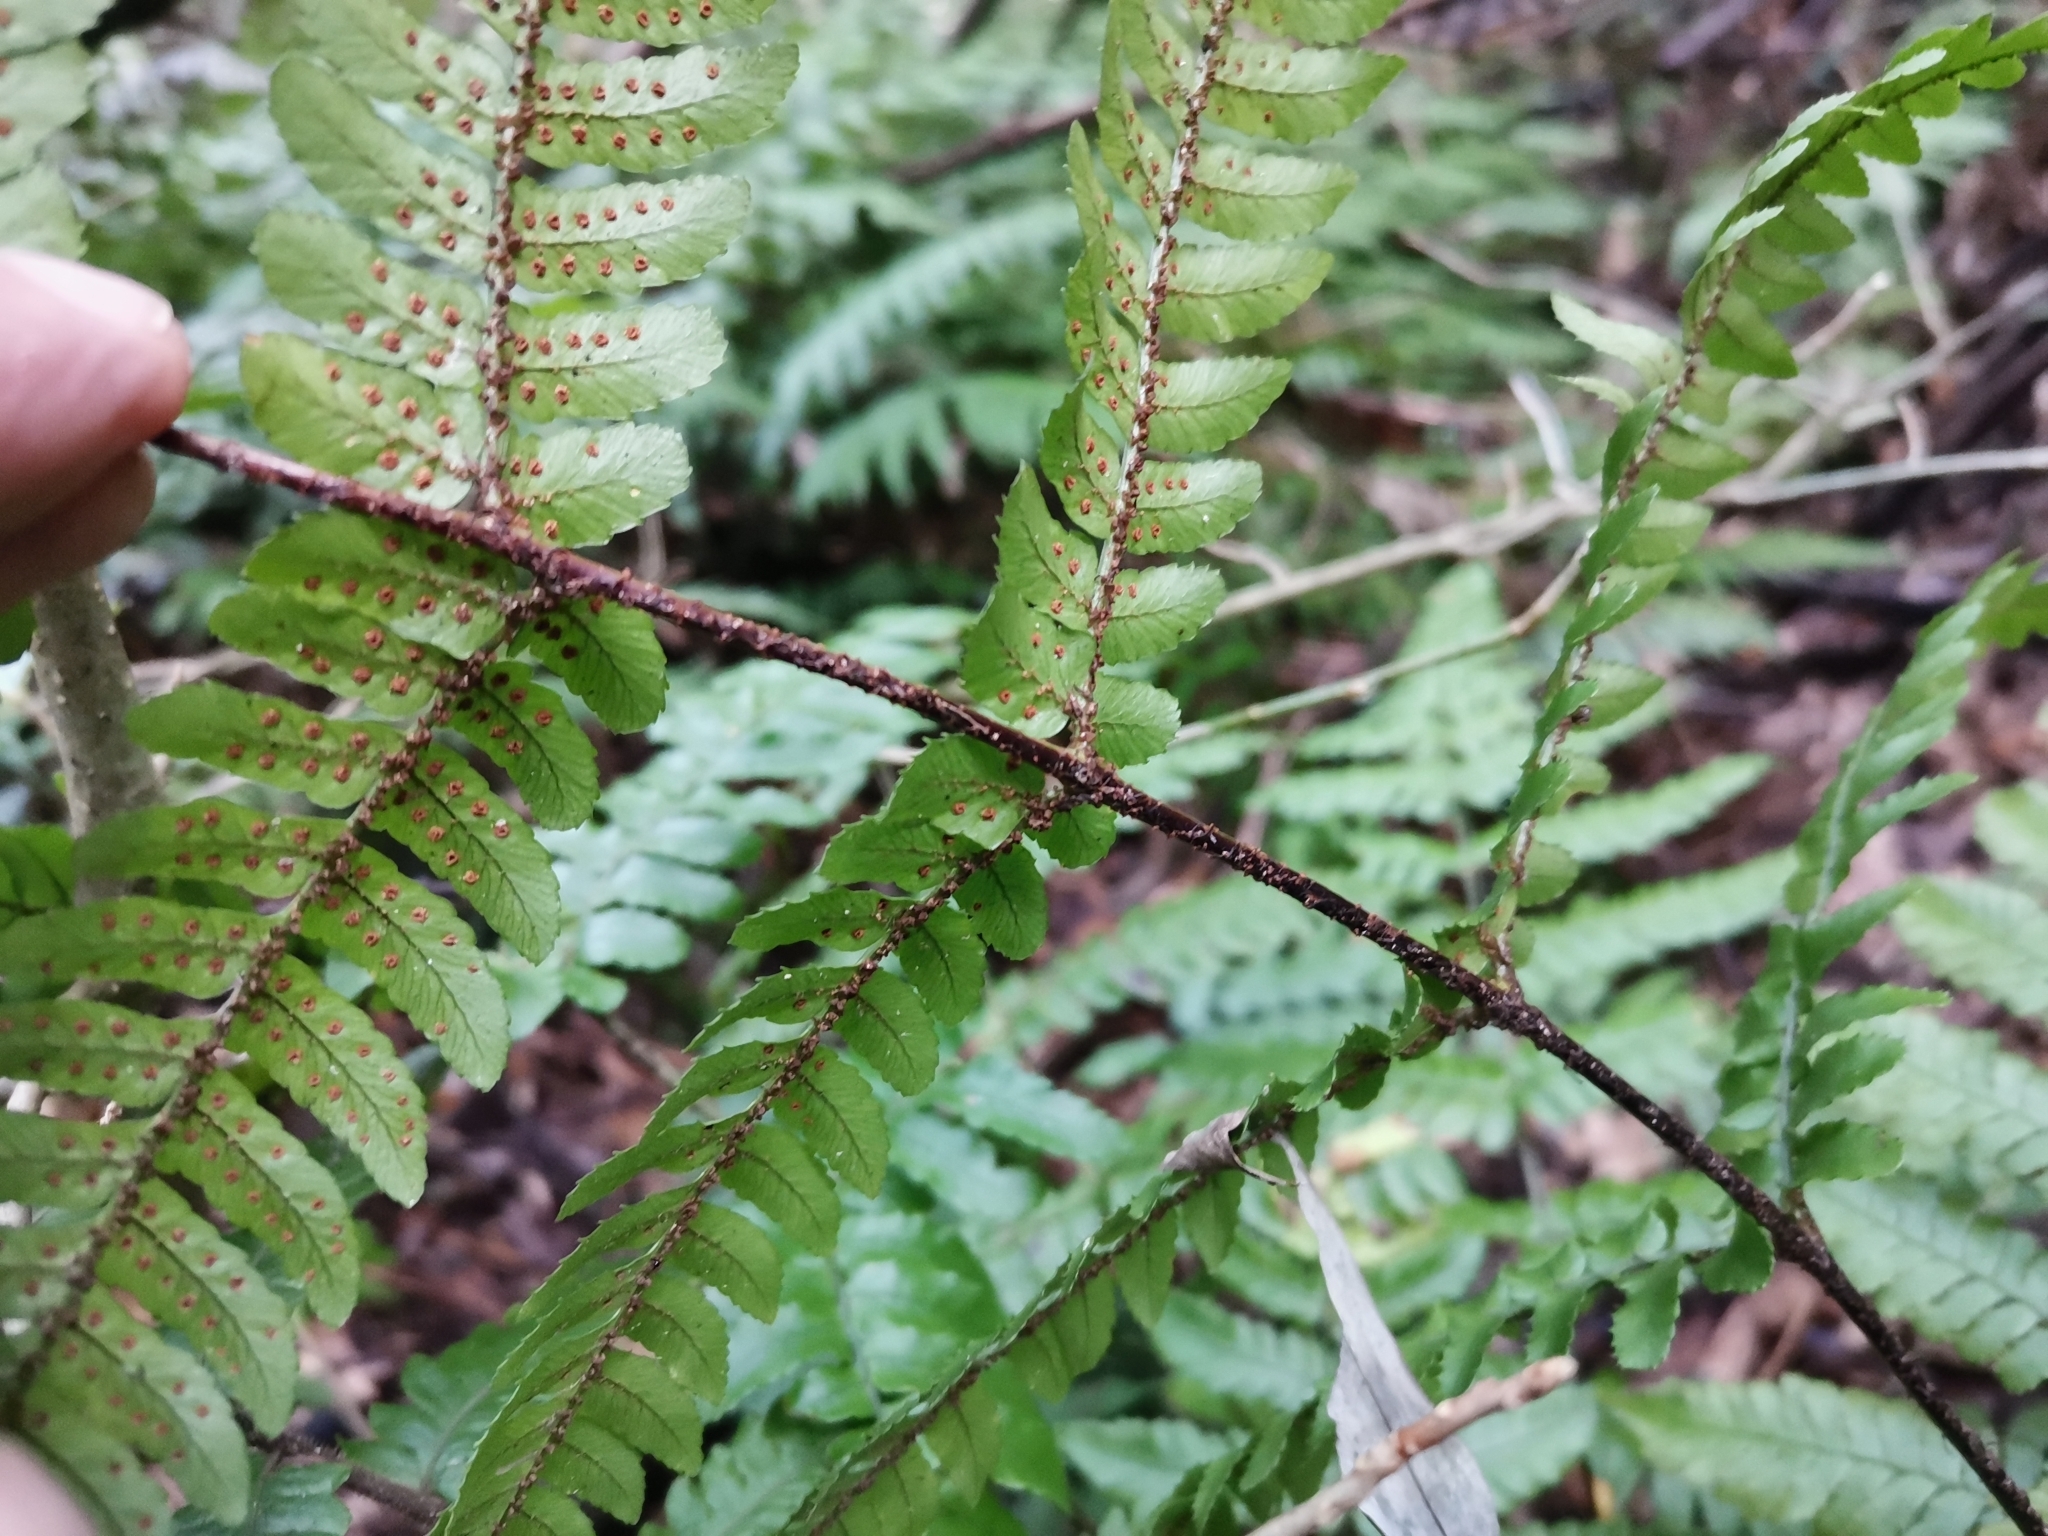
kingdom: Plantae
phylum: Tracheophyta
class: Polypodiopsida
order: Polypodiales
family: Dryopteridaceae
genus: Dryopteris
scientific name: Dryopteris erythrosora
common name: Autumn fern
